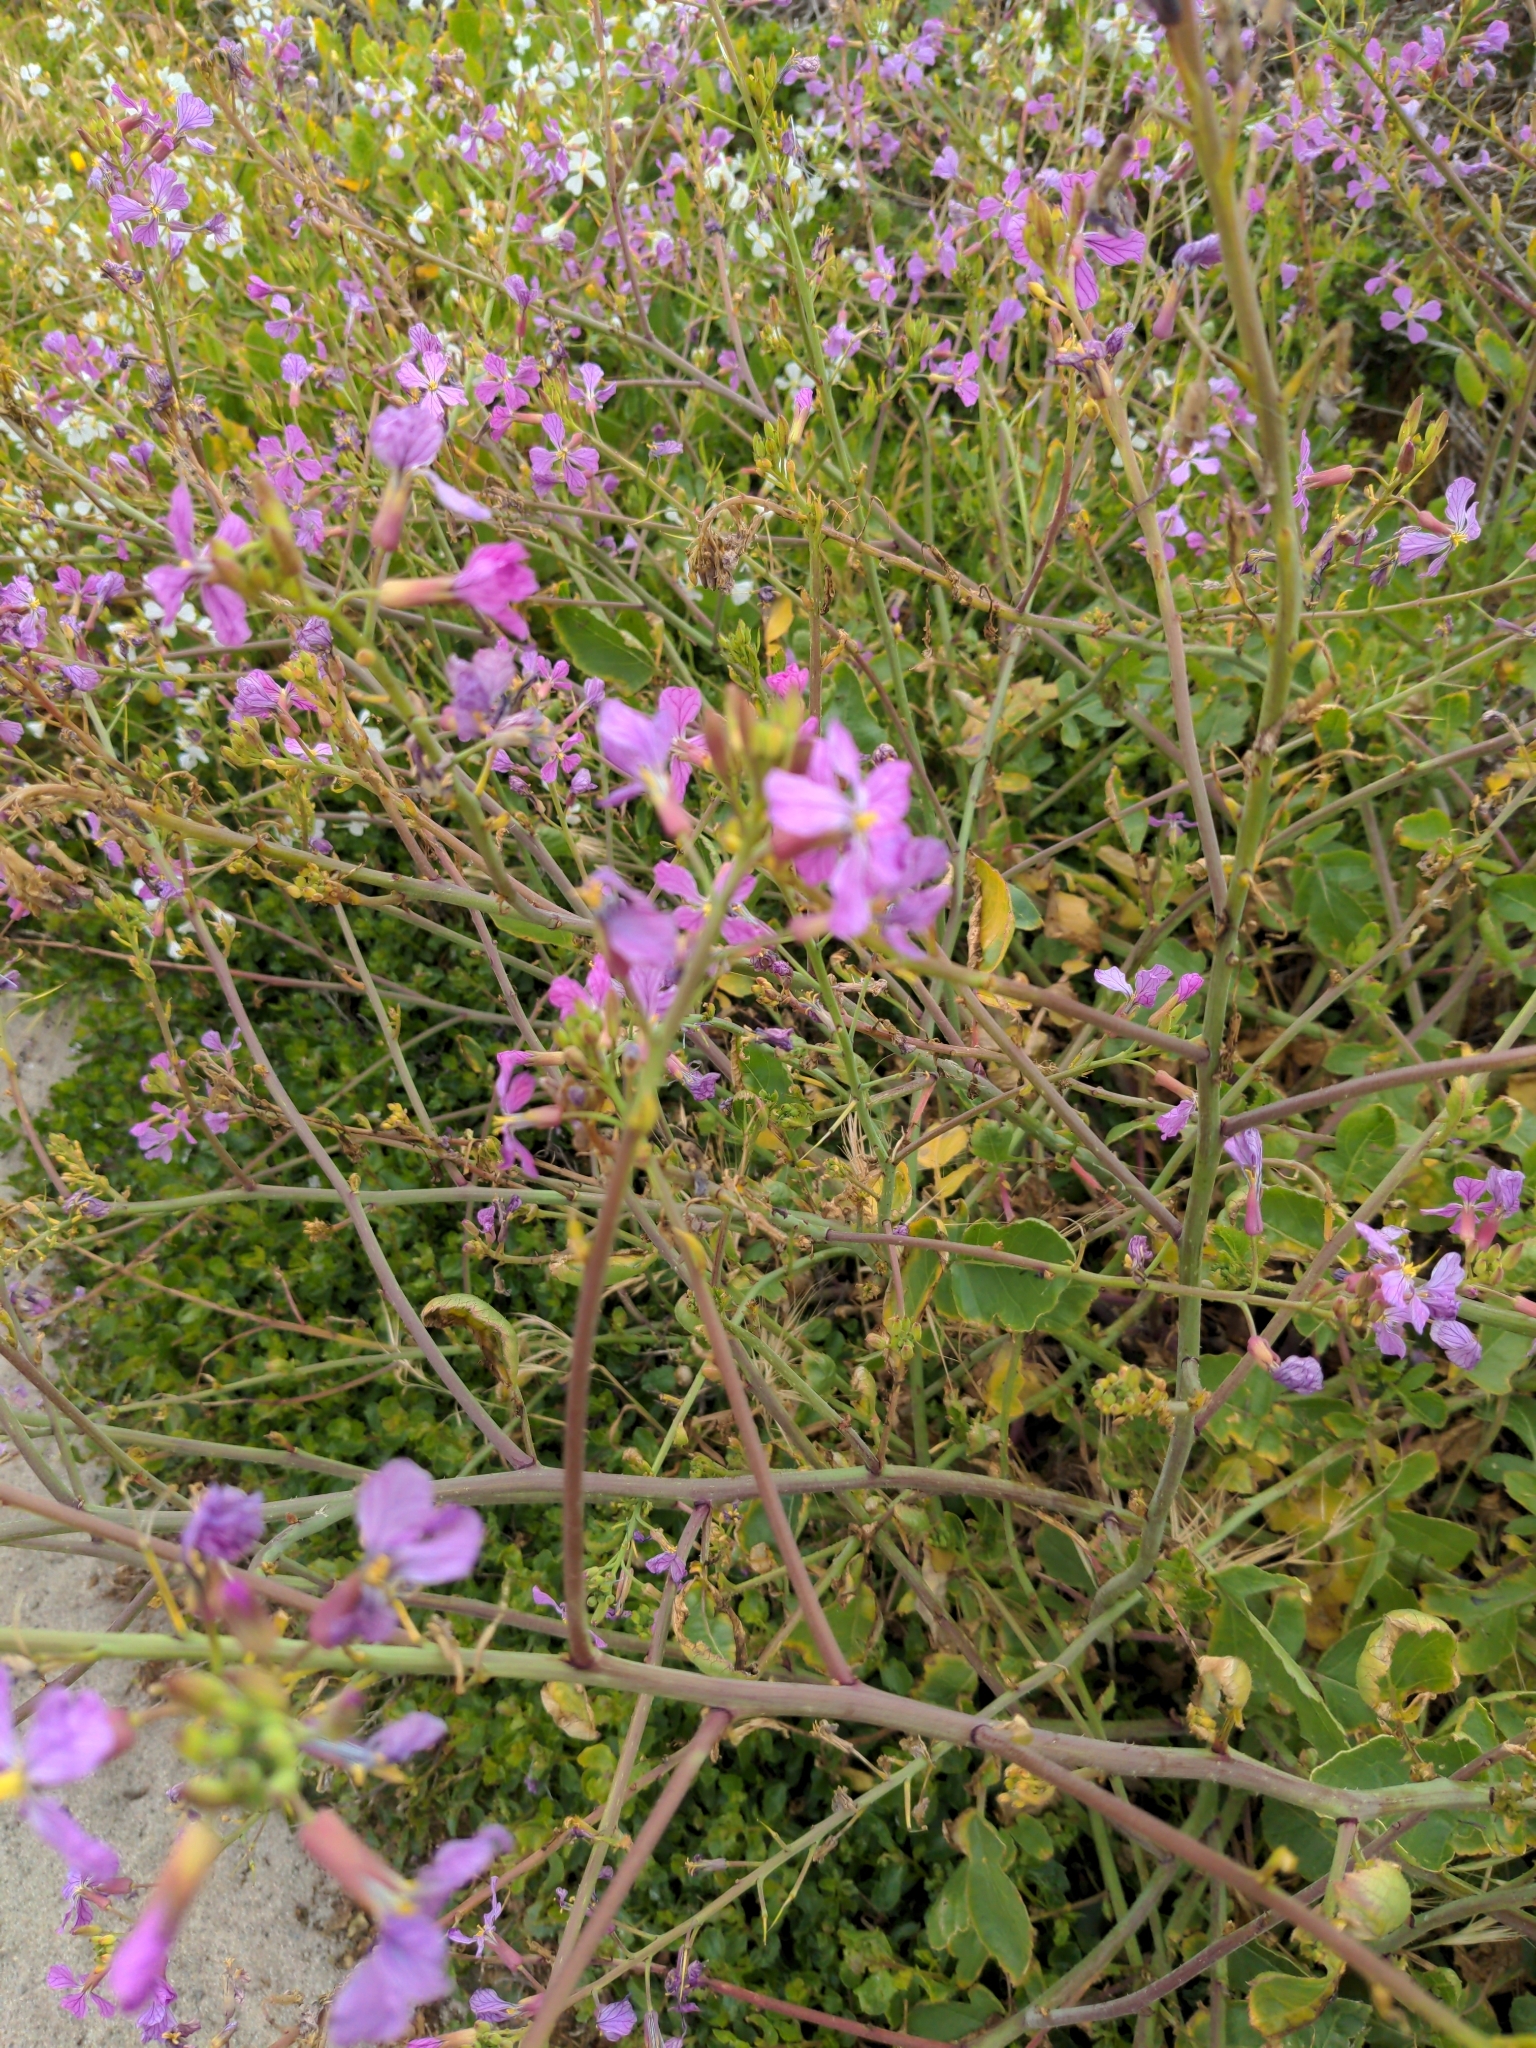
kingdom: Plantae
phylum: Tracheophyta
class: Magnoliopsida
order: Brassicales
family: Brassicaceae
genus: Raphanus
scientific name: Raphanus sativus
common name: Cultivated radish
